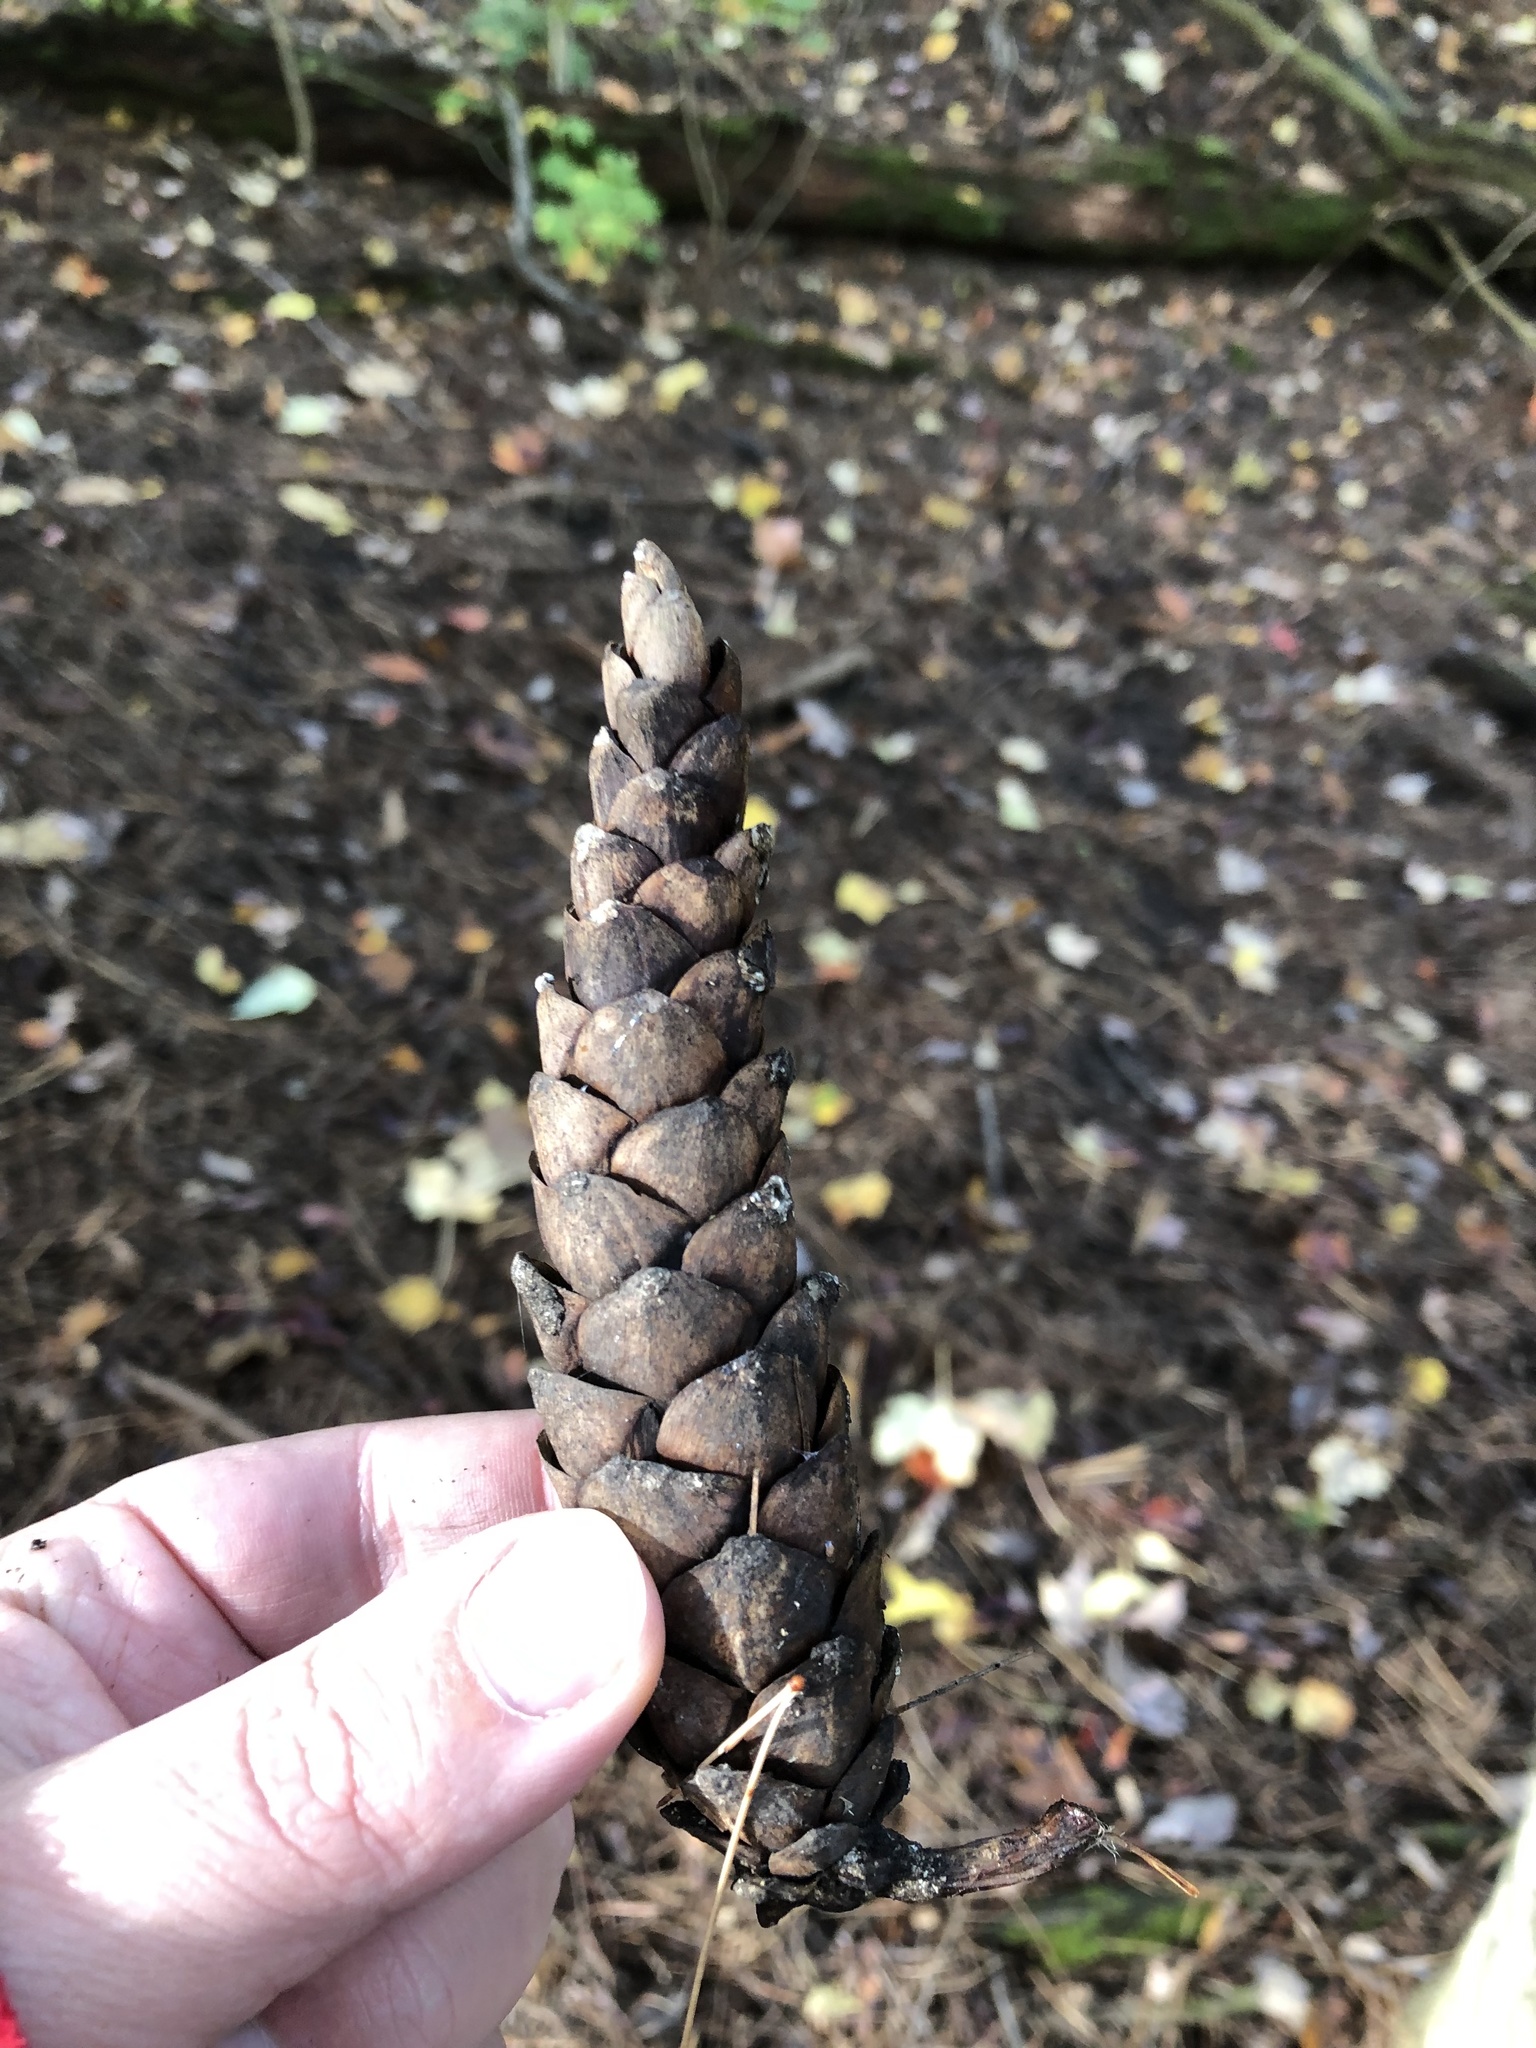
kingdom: Plantae
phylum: Tracheophyta
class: Pinopsida
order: Pinales
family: Pinaceae
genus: Pinus
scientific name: Pinus strobus
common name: Weymouth pine
